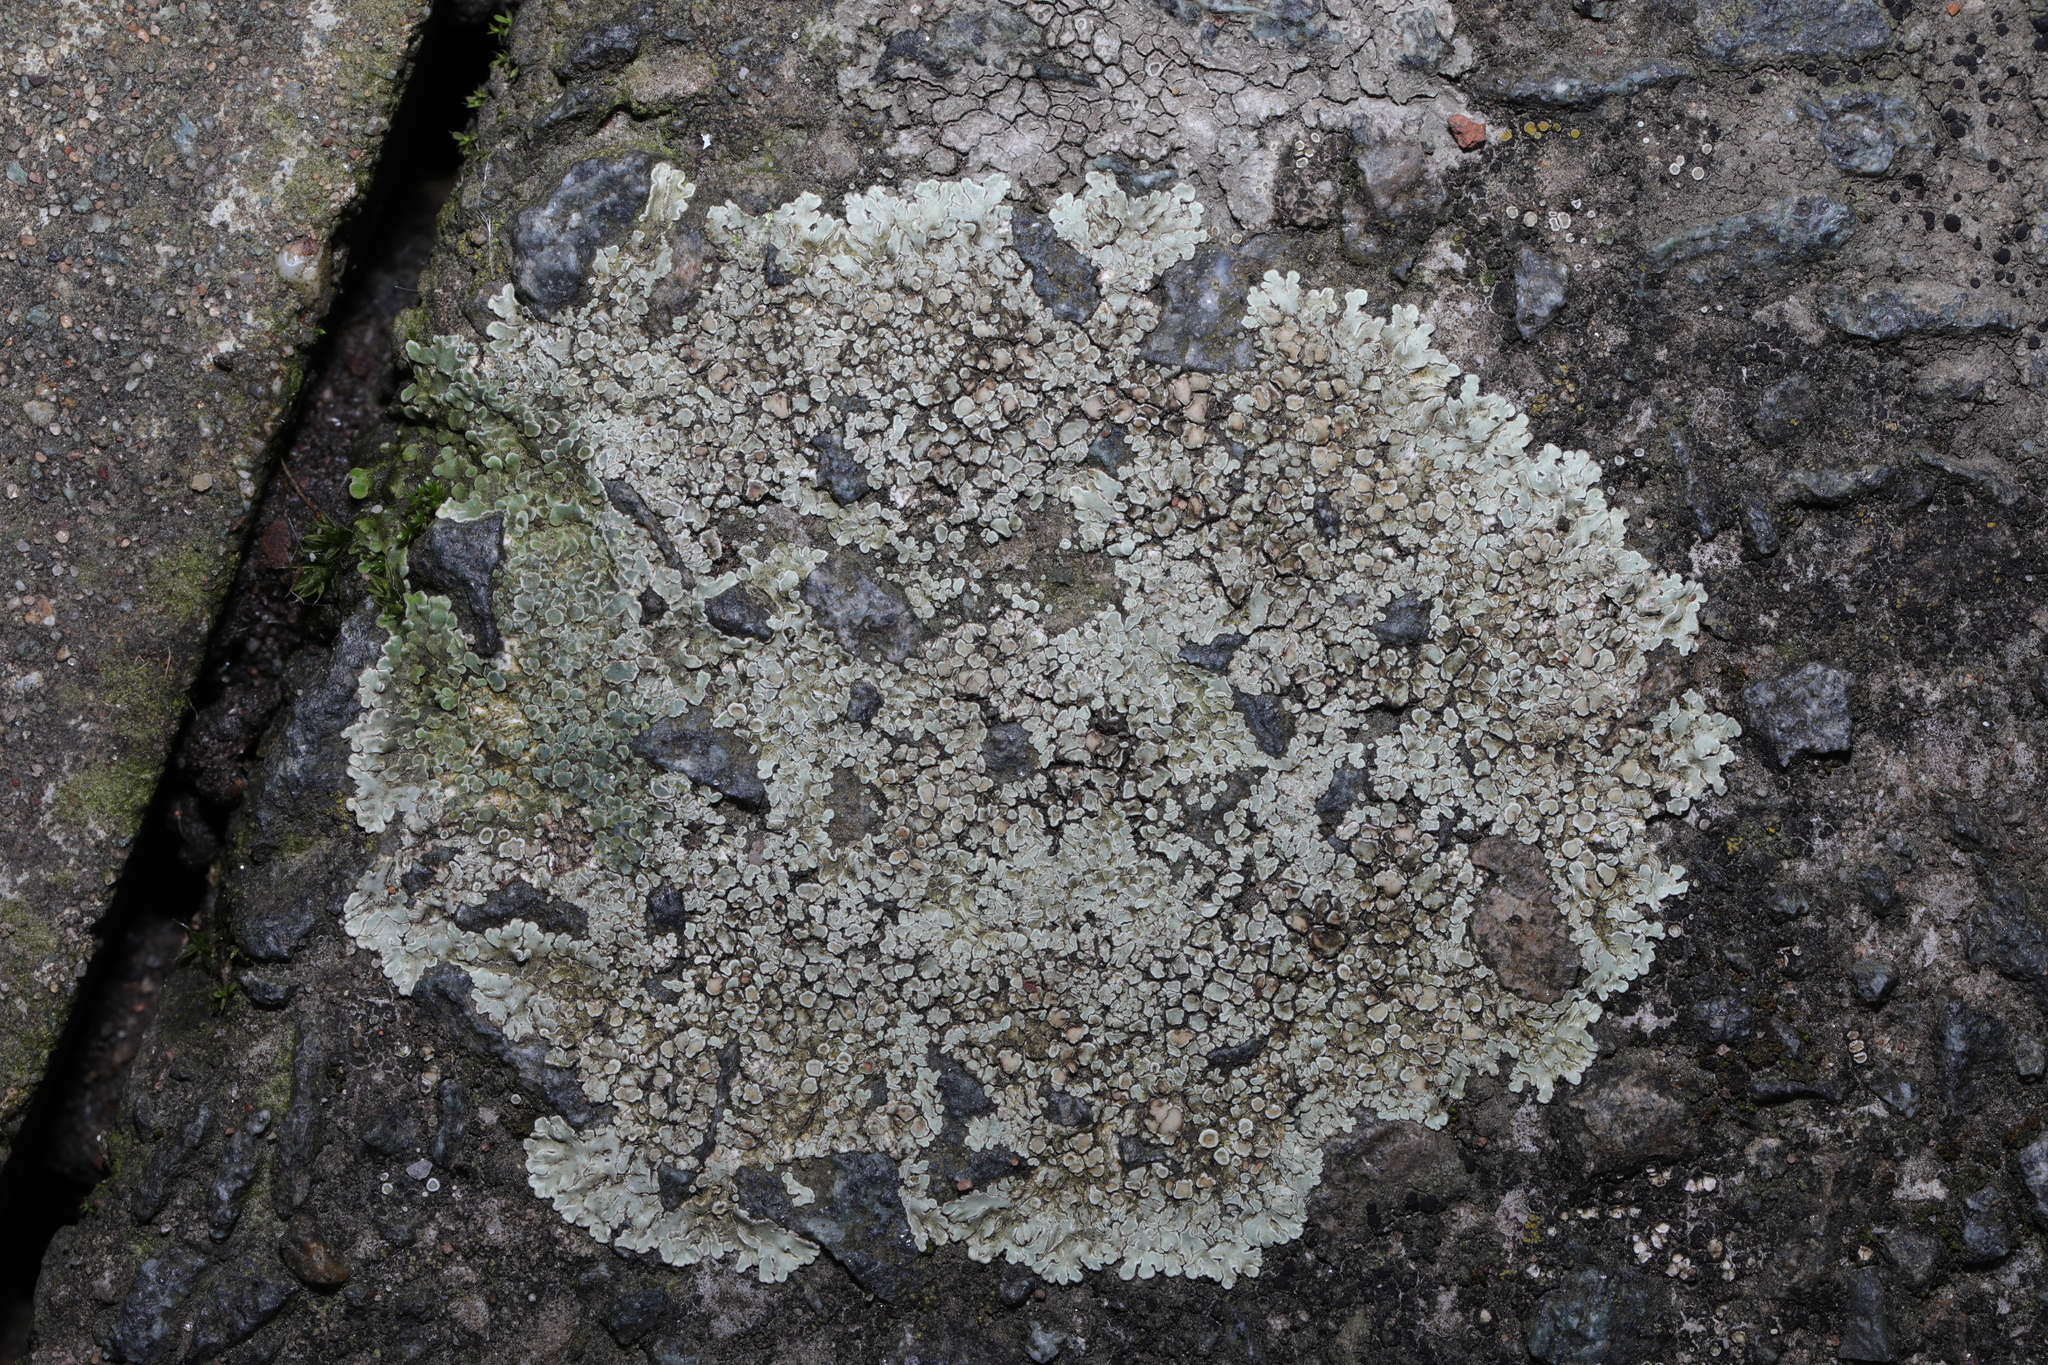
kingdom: Fungi
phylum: Ascomycota
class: Lecanoromycetes
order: Lecanorales
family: Lecanoraceae
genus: Protoparmeliopsis
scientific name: Protoparmeliopsis muralis
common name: Stonewall rim lichen
